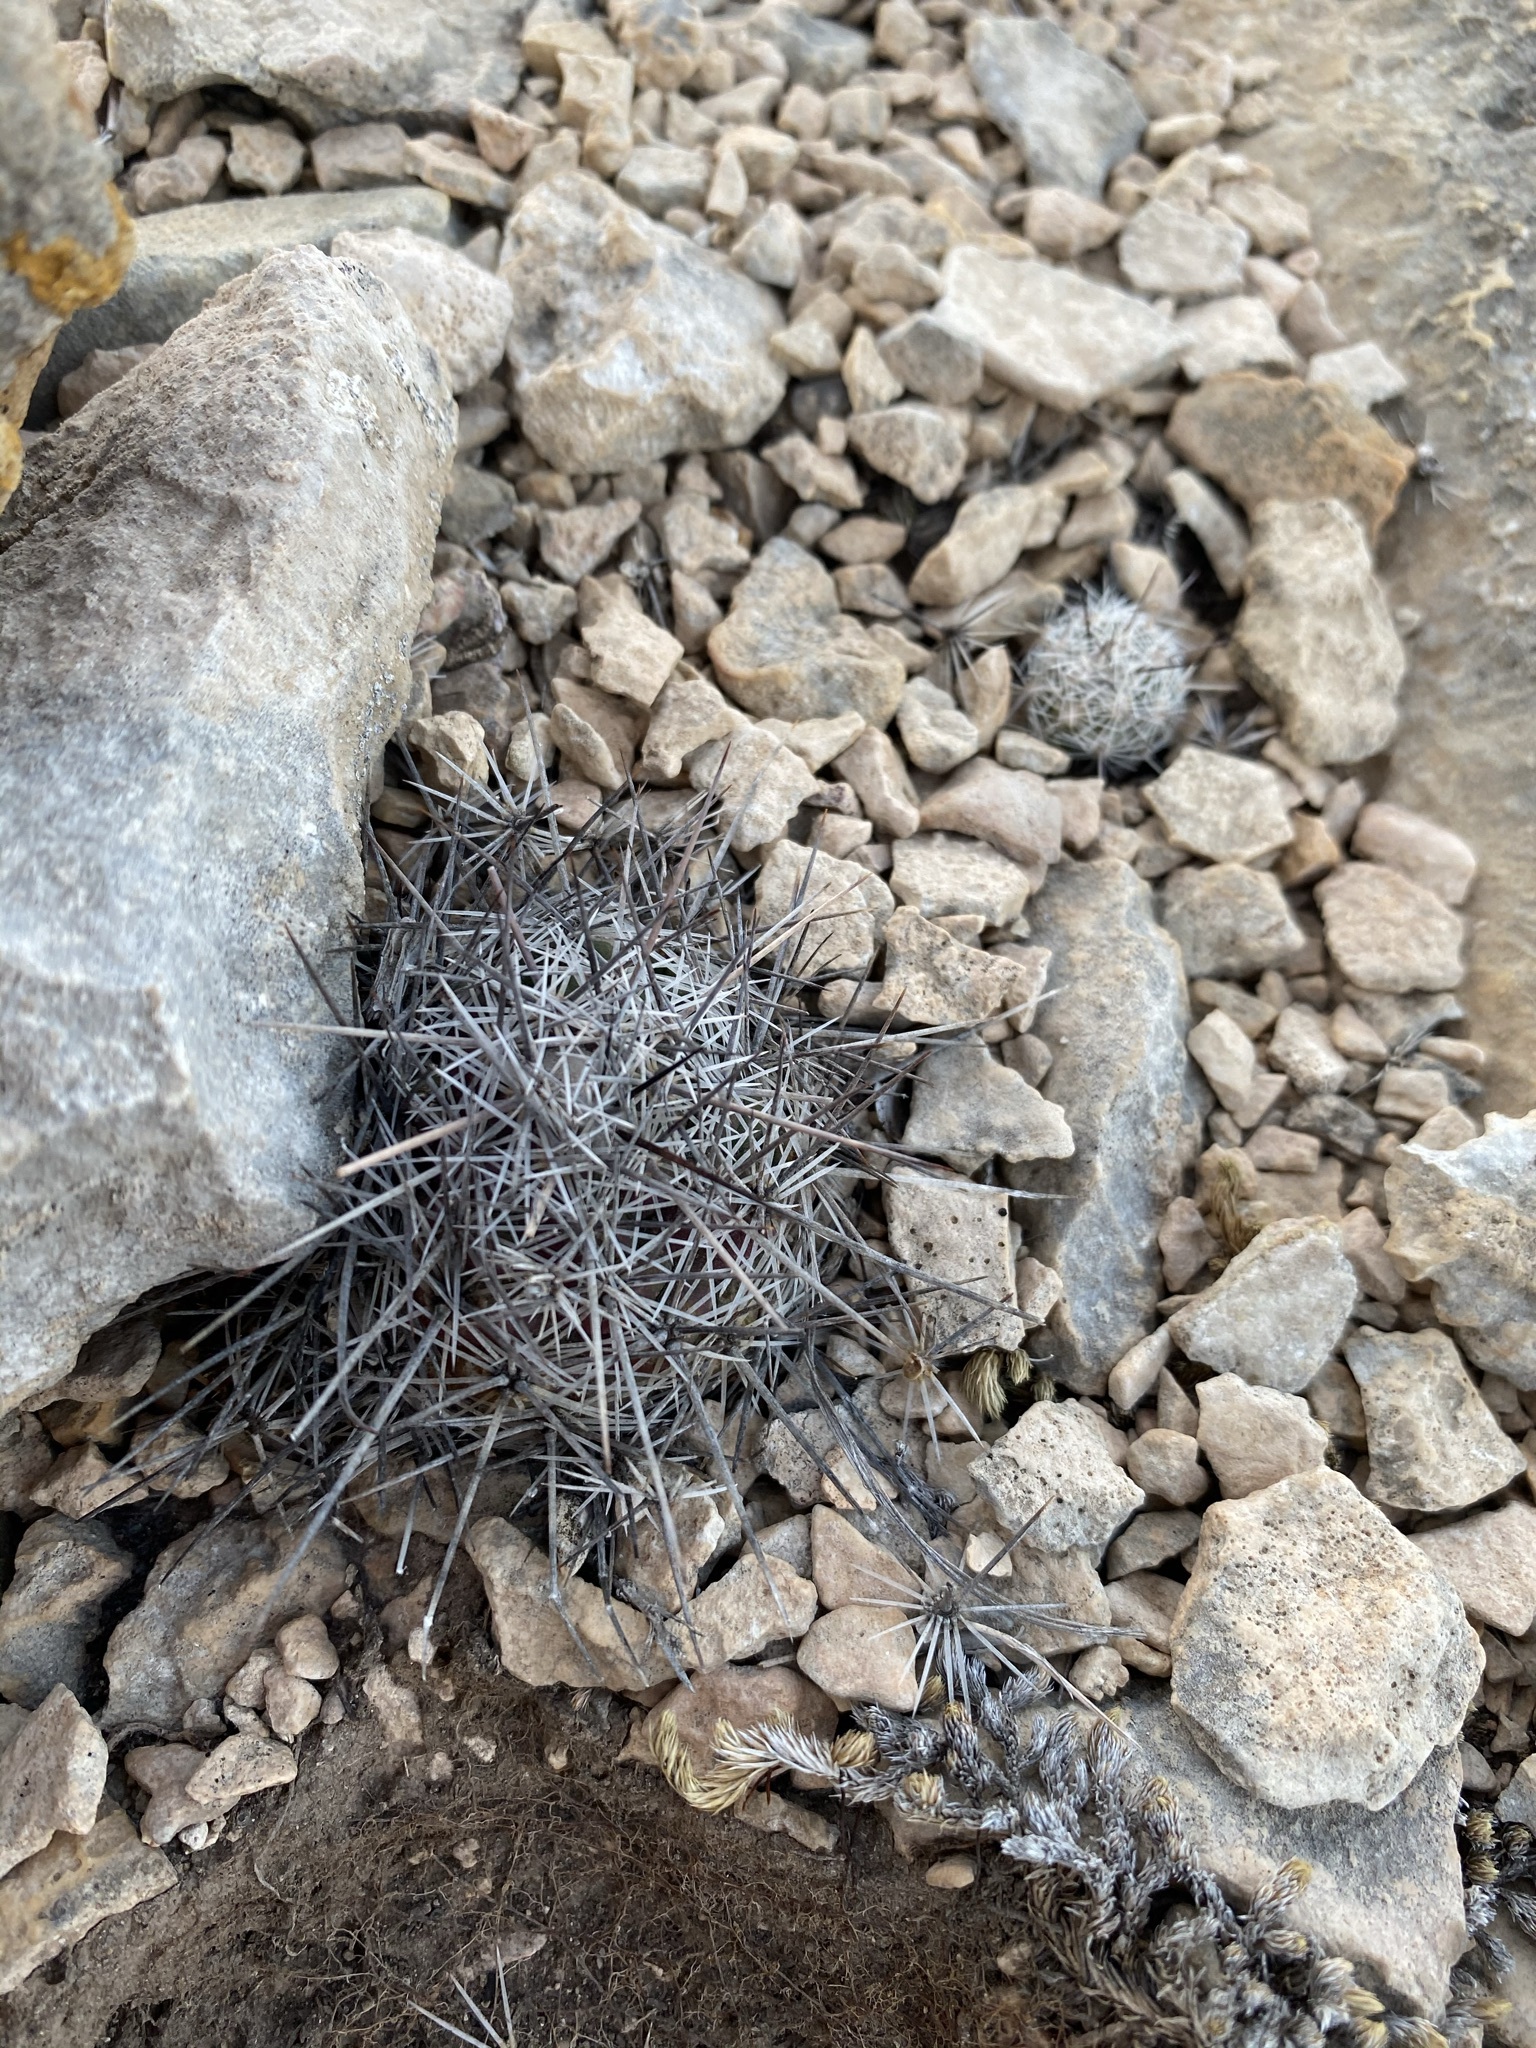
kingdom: Plantae
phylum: Tracheophyta
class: Magnoliopsida
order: Caryophyllales
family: Cactaceae
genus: Cochemiea
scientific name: Cochemiea conoidea
